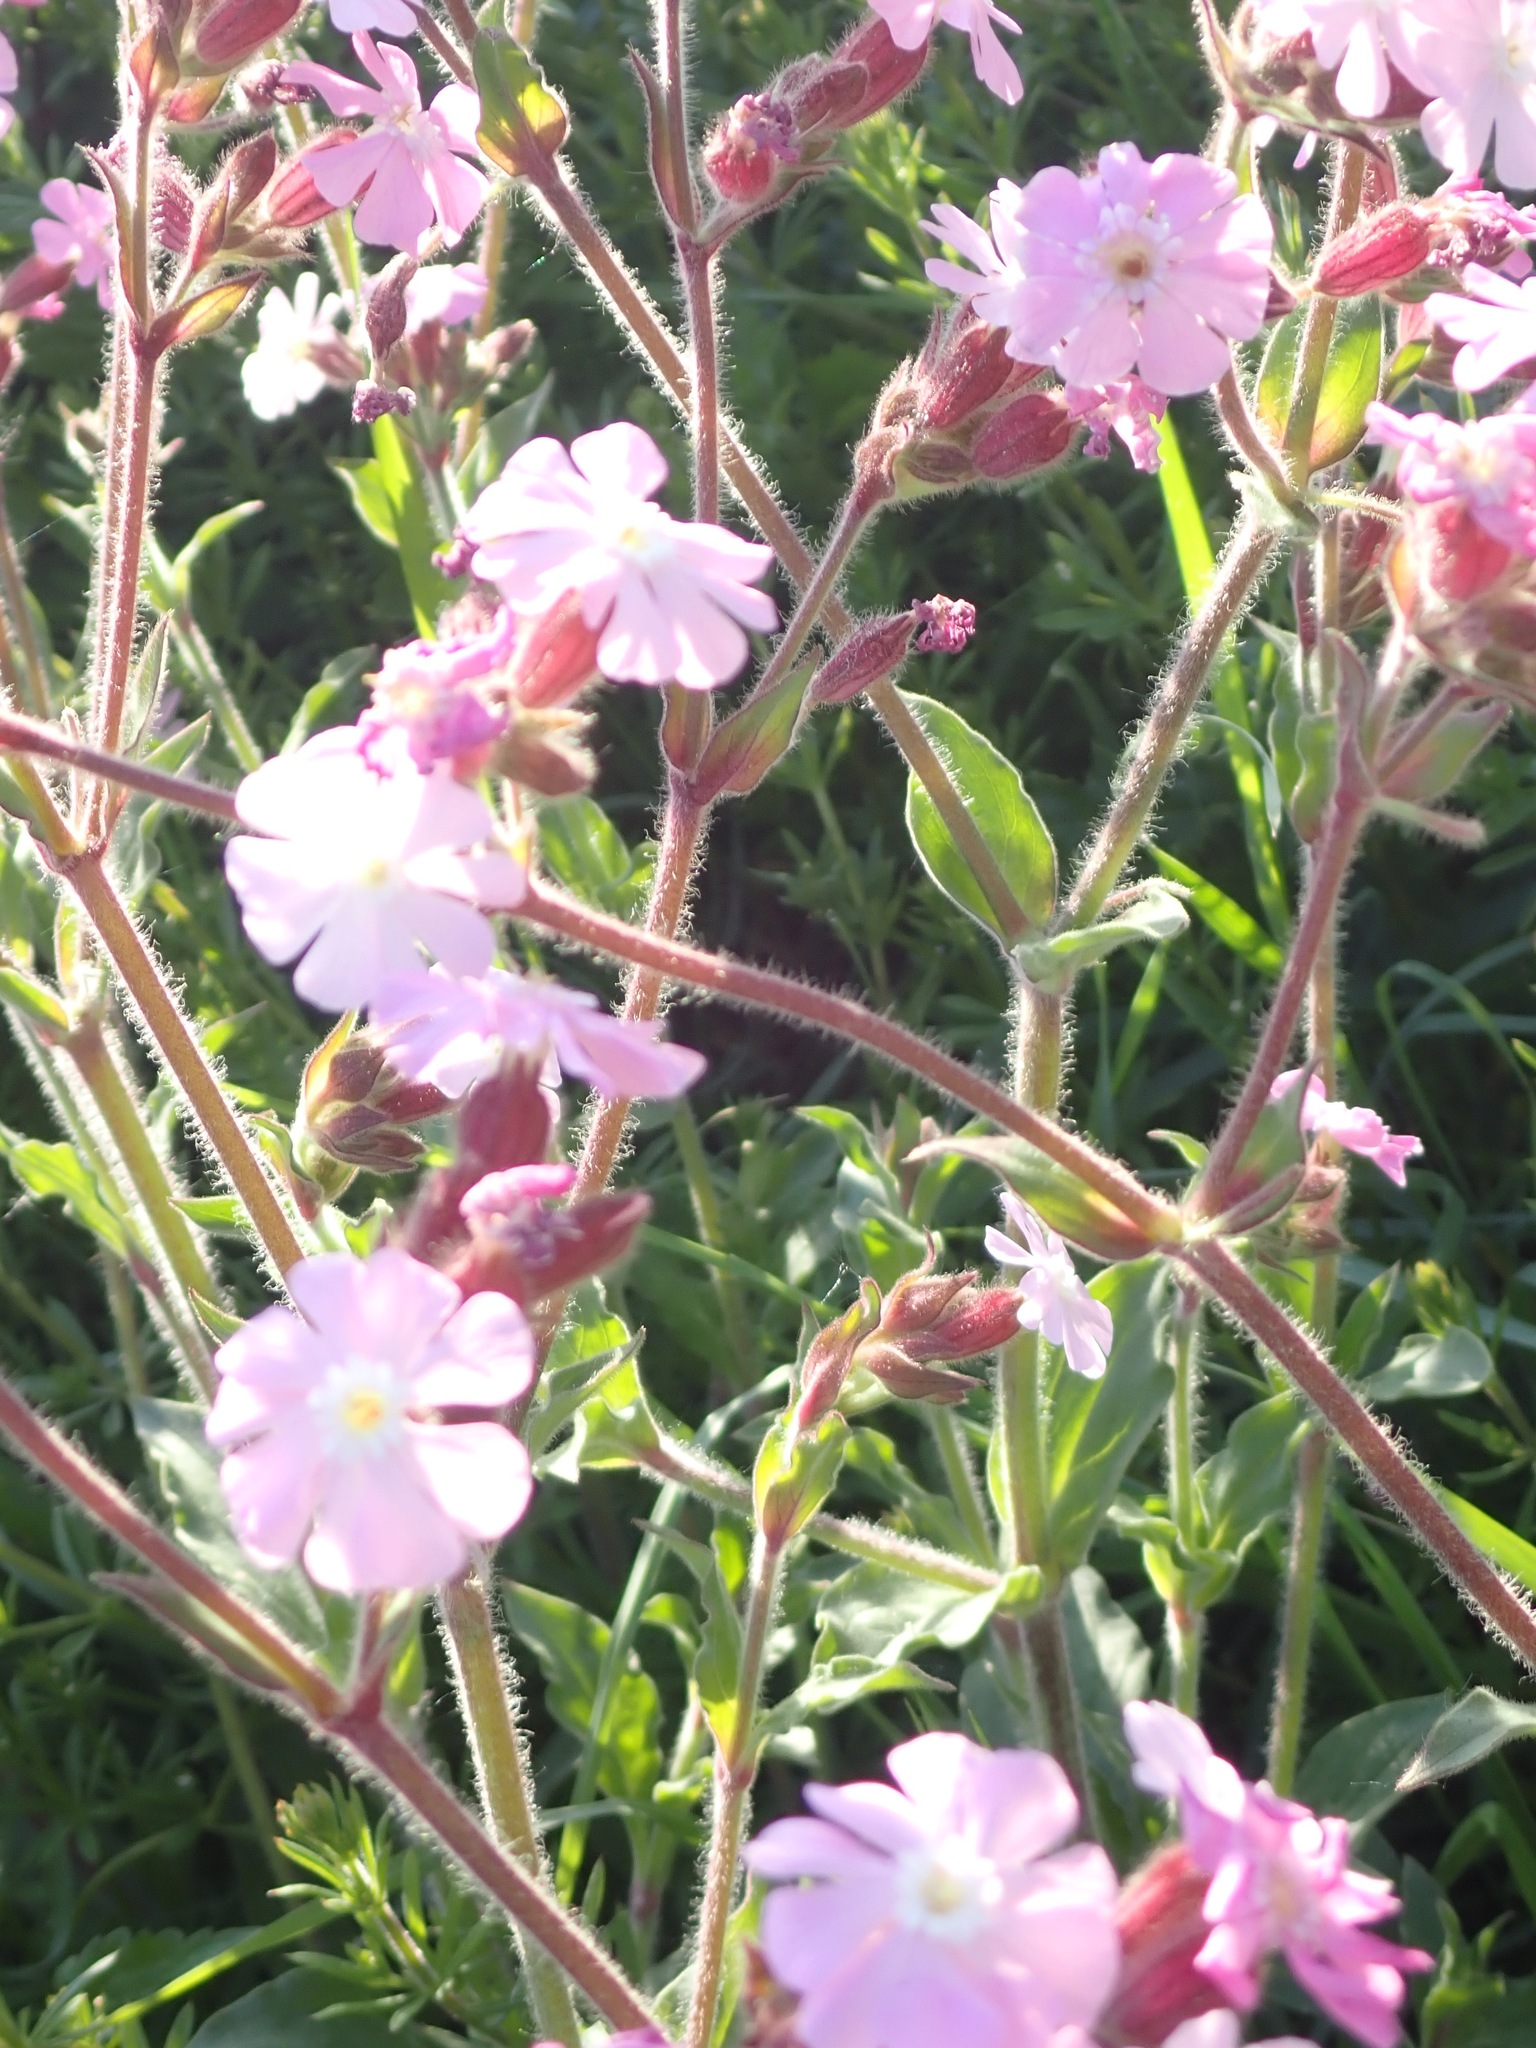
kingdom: Plantae
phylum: Tracheophyta
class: Magnoliopsida
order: Caryophyllales
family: Caryophyllaceae
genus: Silene
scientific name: Silene dioica
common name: Red campion
